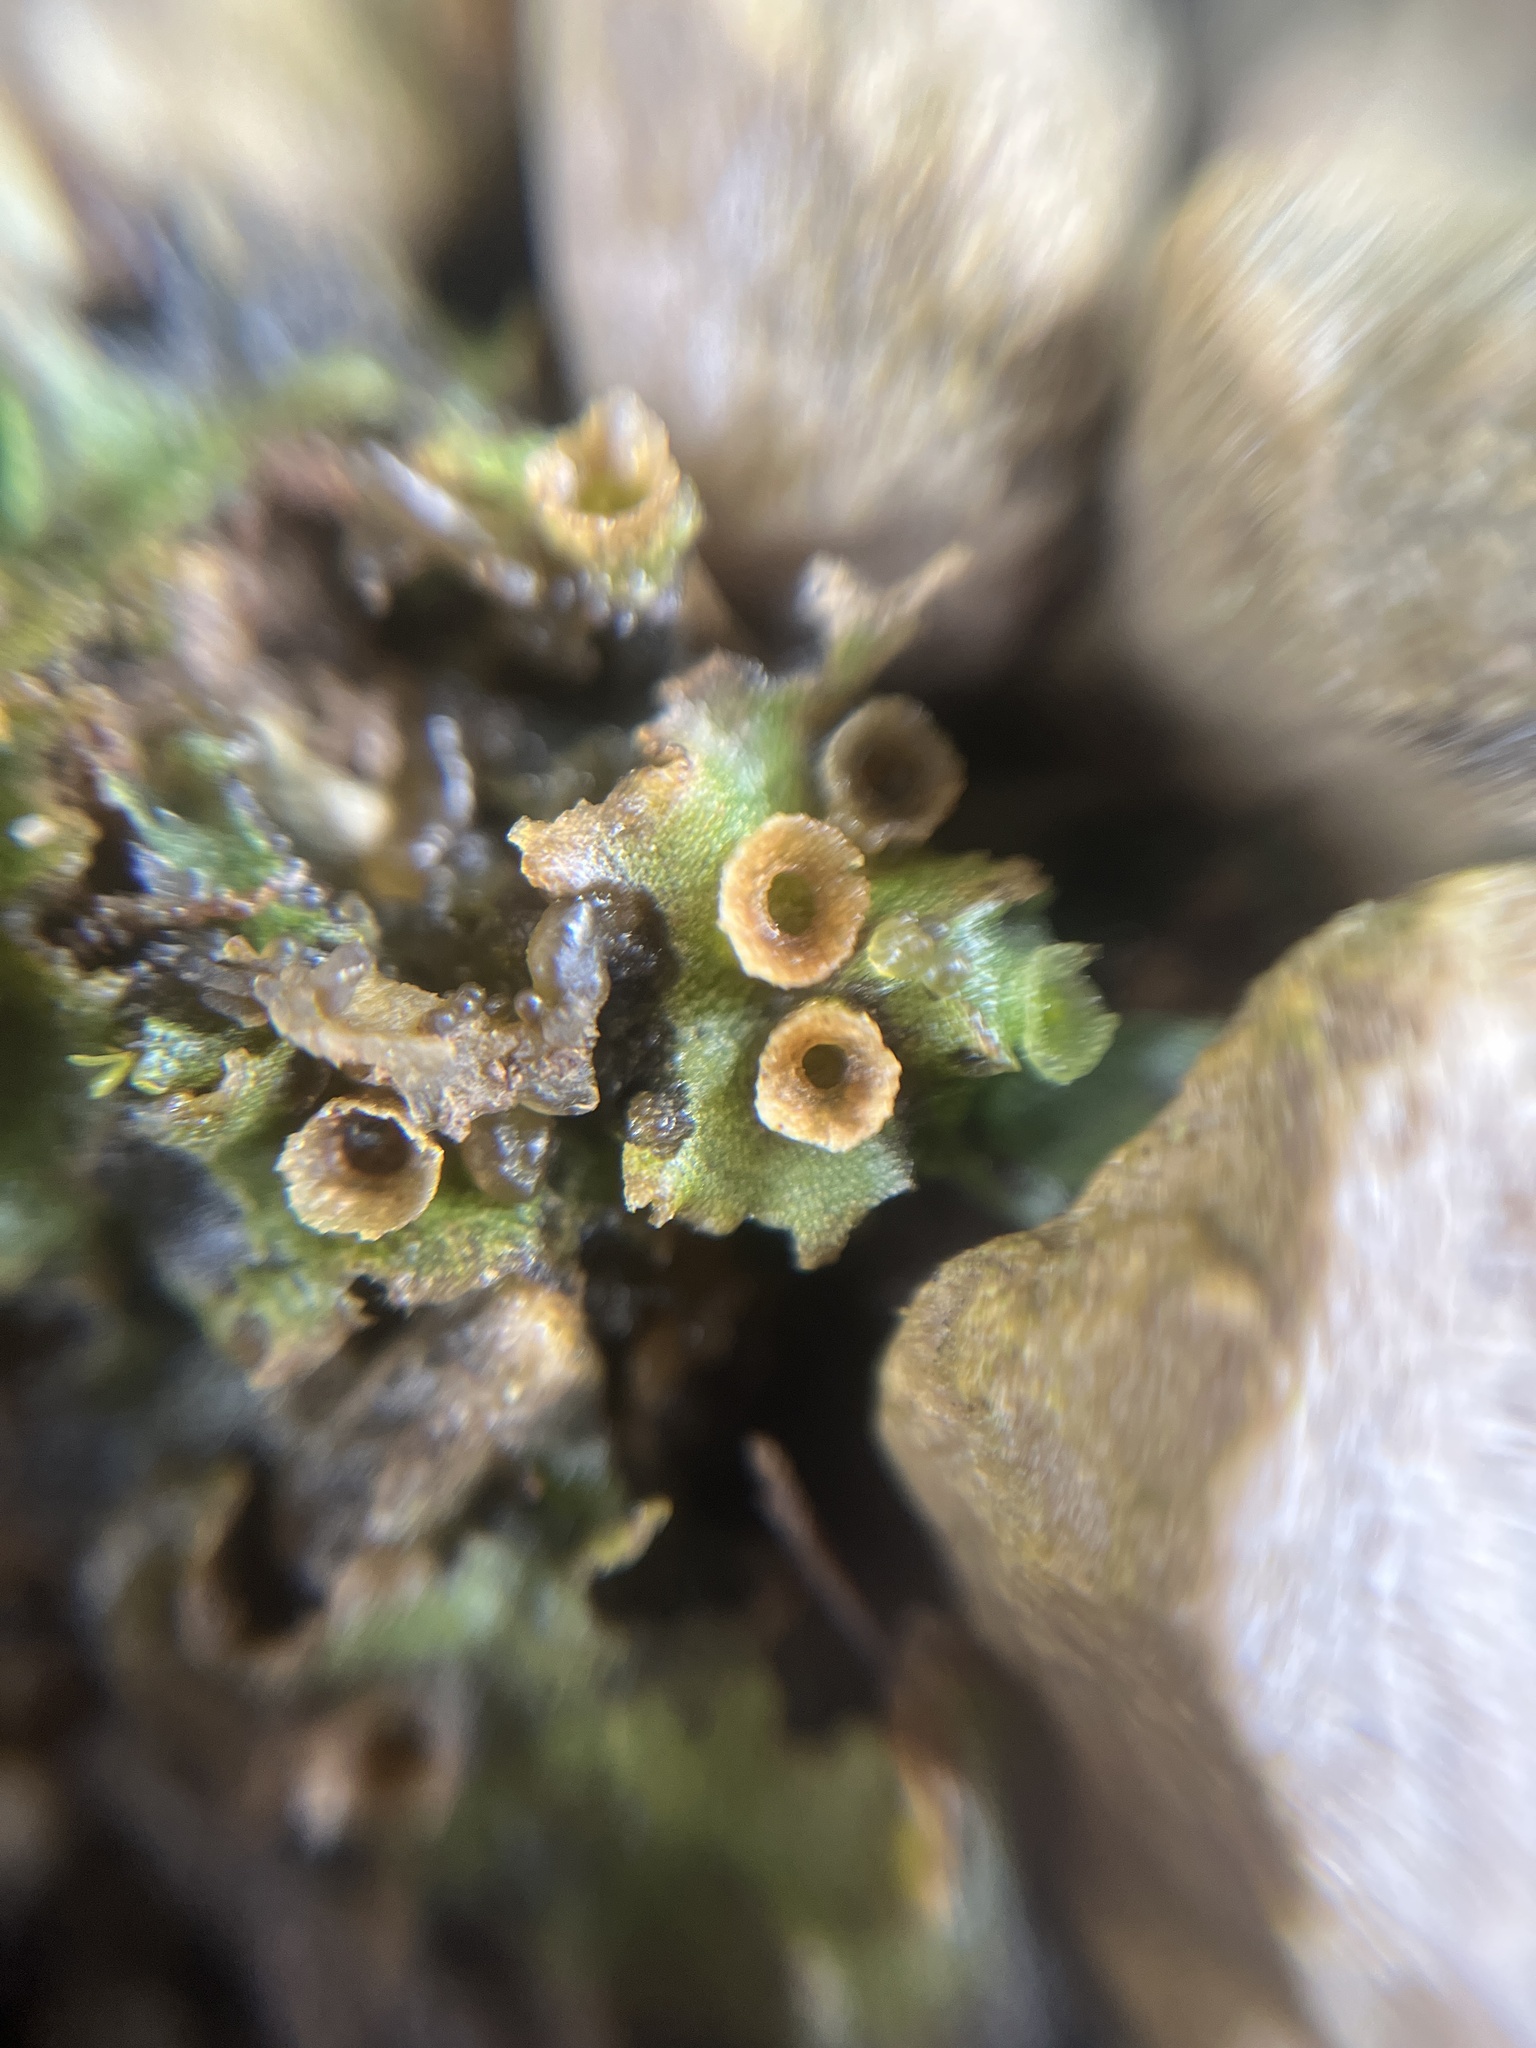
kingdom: Plantae
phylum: Marchantiophyta
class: Marchantiopsida
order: Marchantiales
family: Marchantiaceae
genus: Marchantia
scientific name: Marchantia polymorpha
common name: Common liverwort
